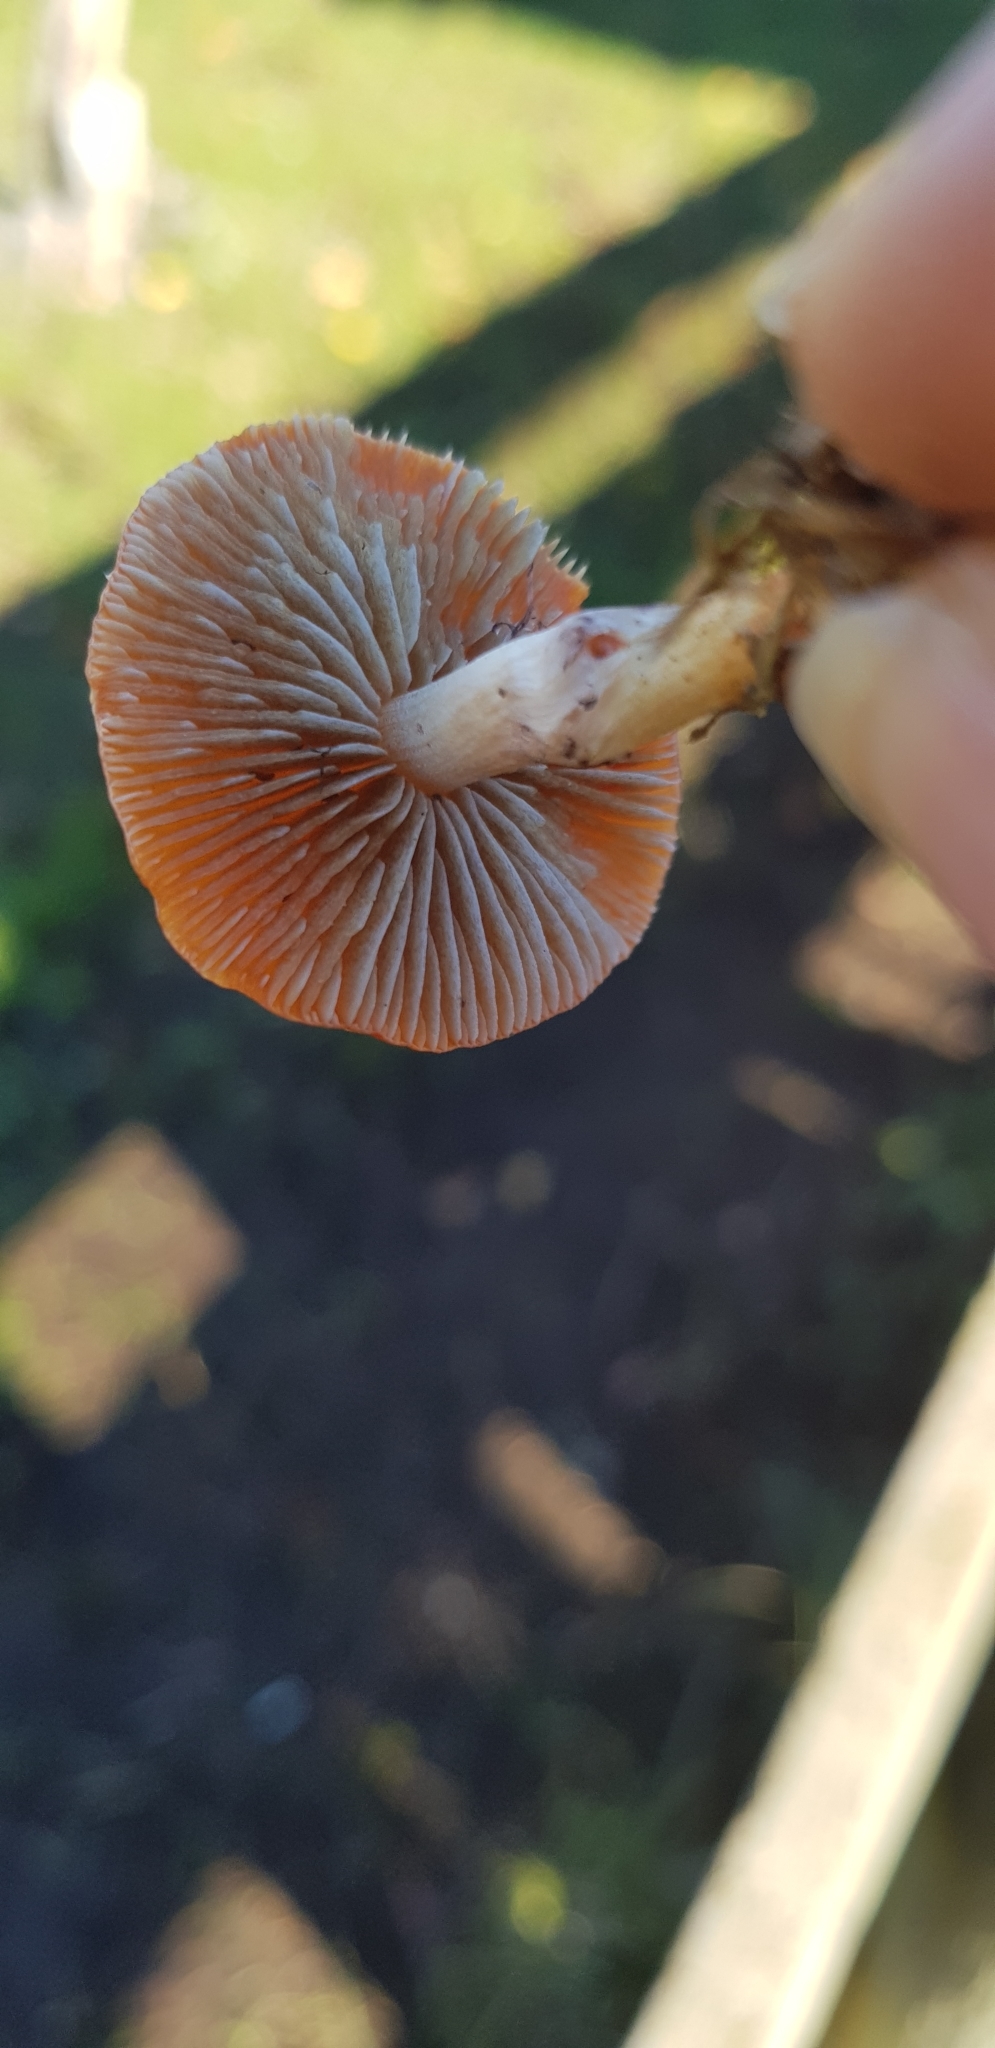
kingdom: Fungi
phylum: Basidiomycota
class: Agaricomycetes
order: Agaricales
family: Strophariaceae
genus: Leratiomyces
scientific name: Leratiomyces ceres
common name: Redlead roundhead
